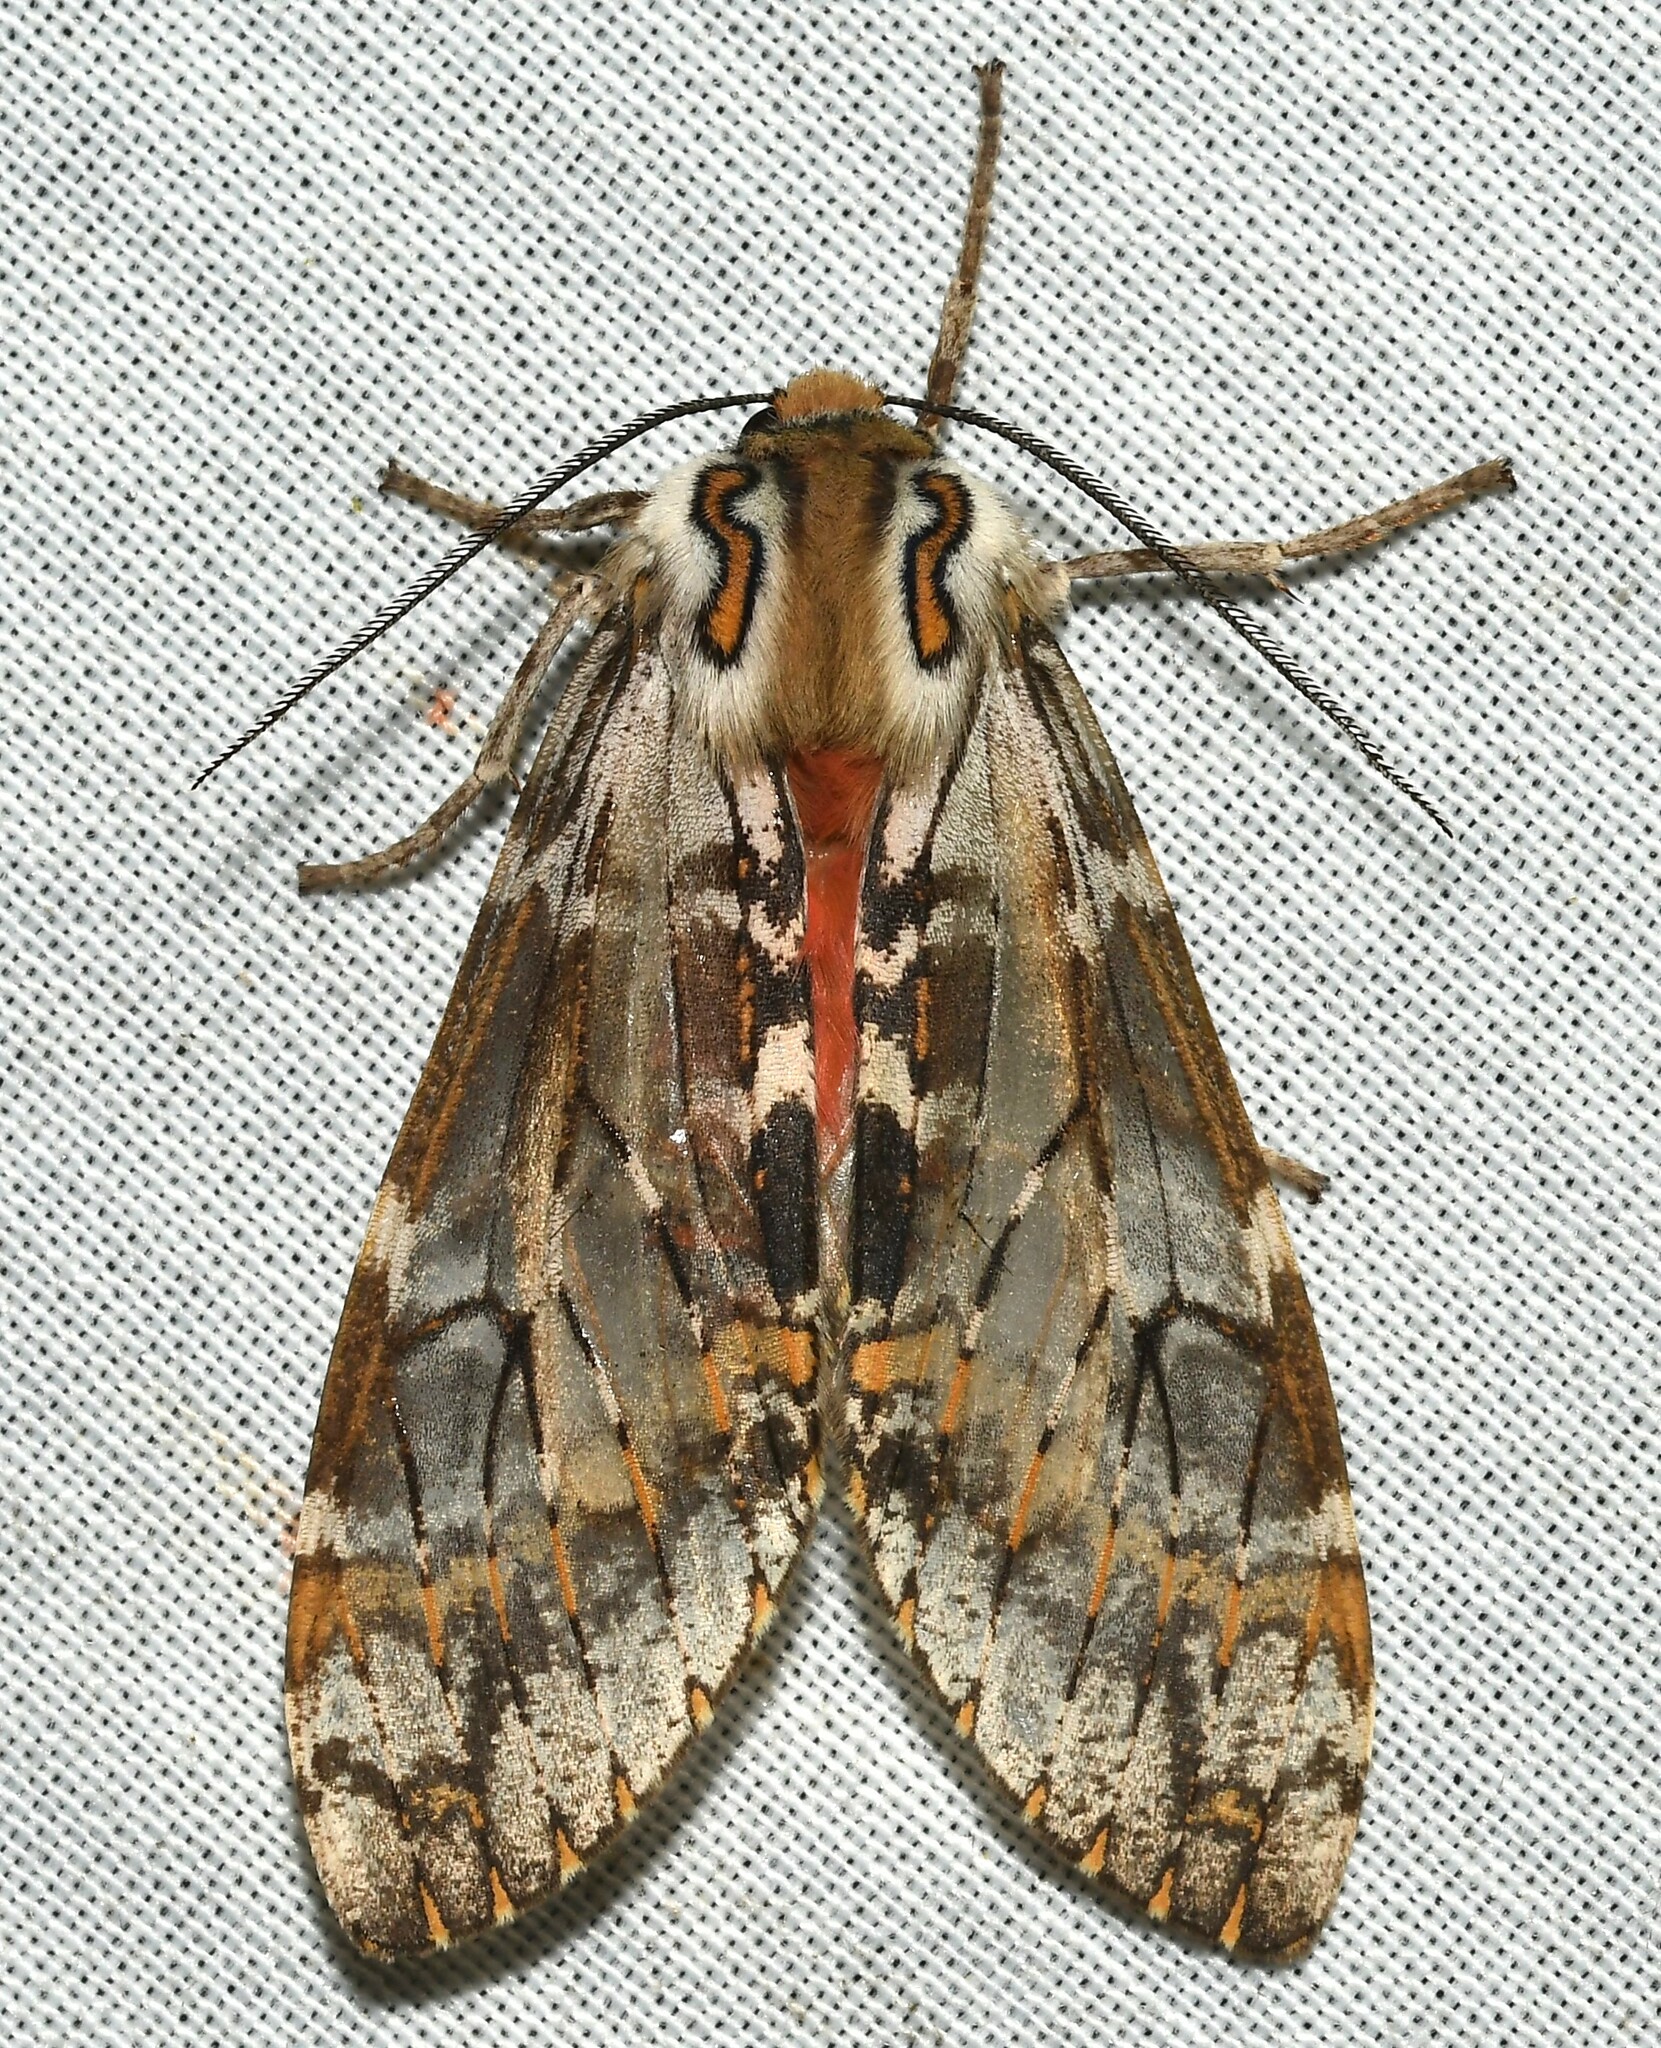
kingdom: Animalia
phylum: Arthropoda
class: Insecta
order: Lepidoptera
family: Erebidae
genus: Praemastus
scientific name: Praemastus fulvizonata
